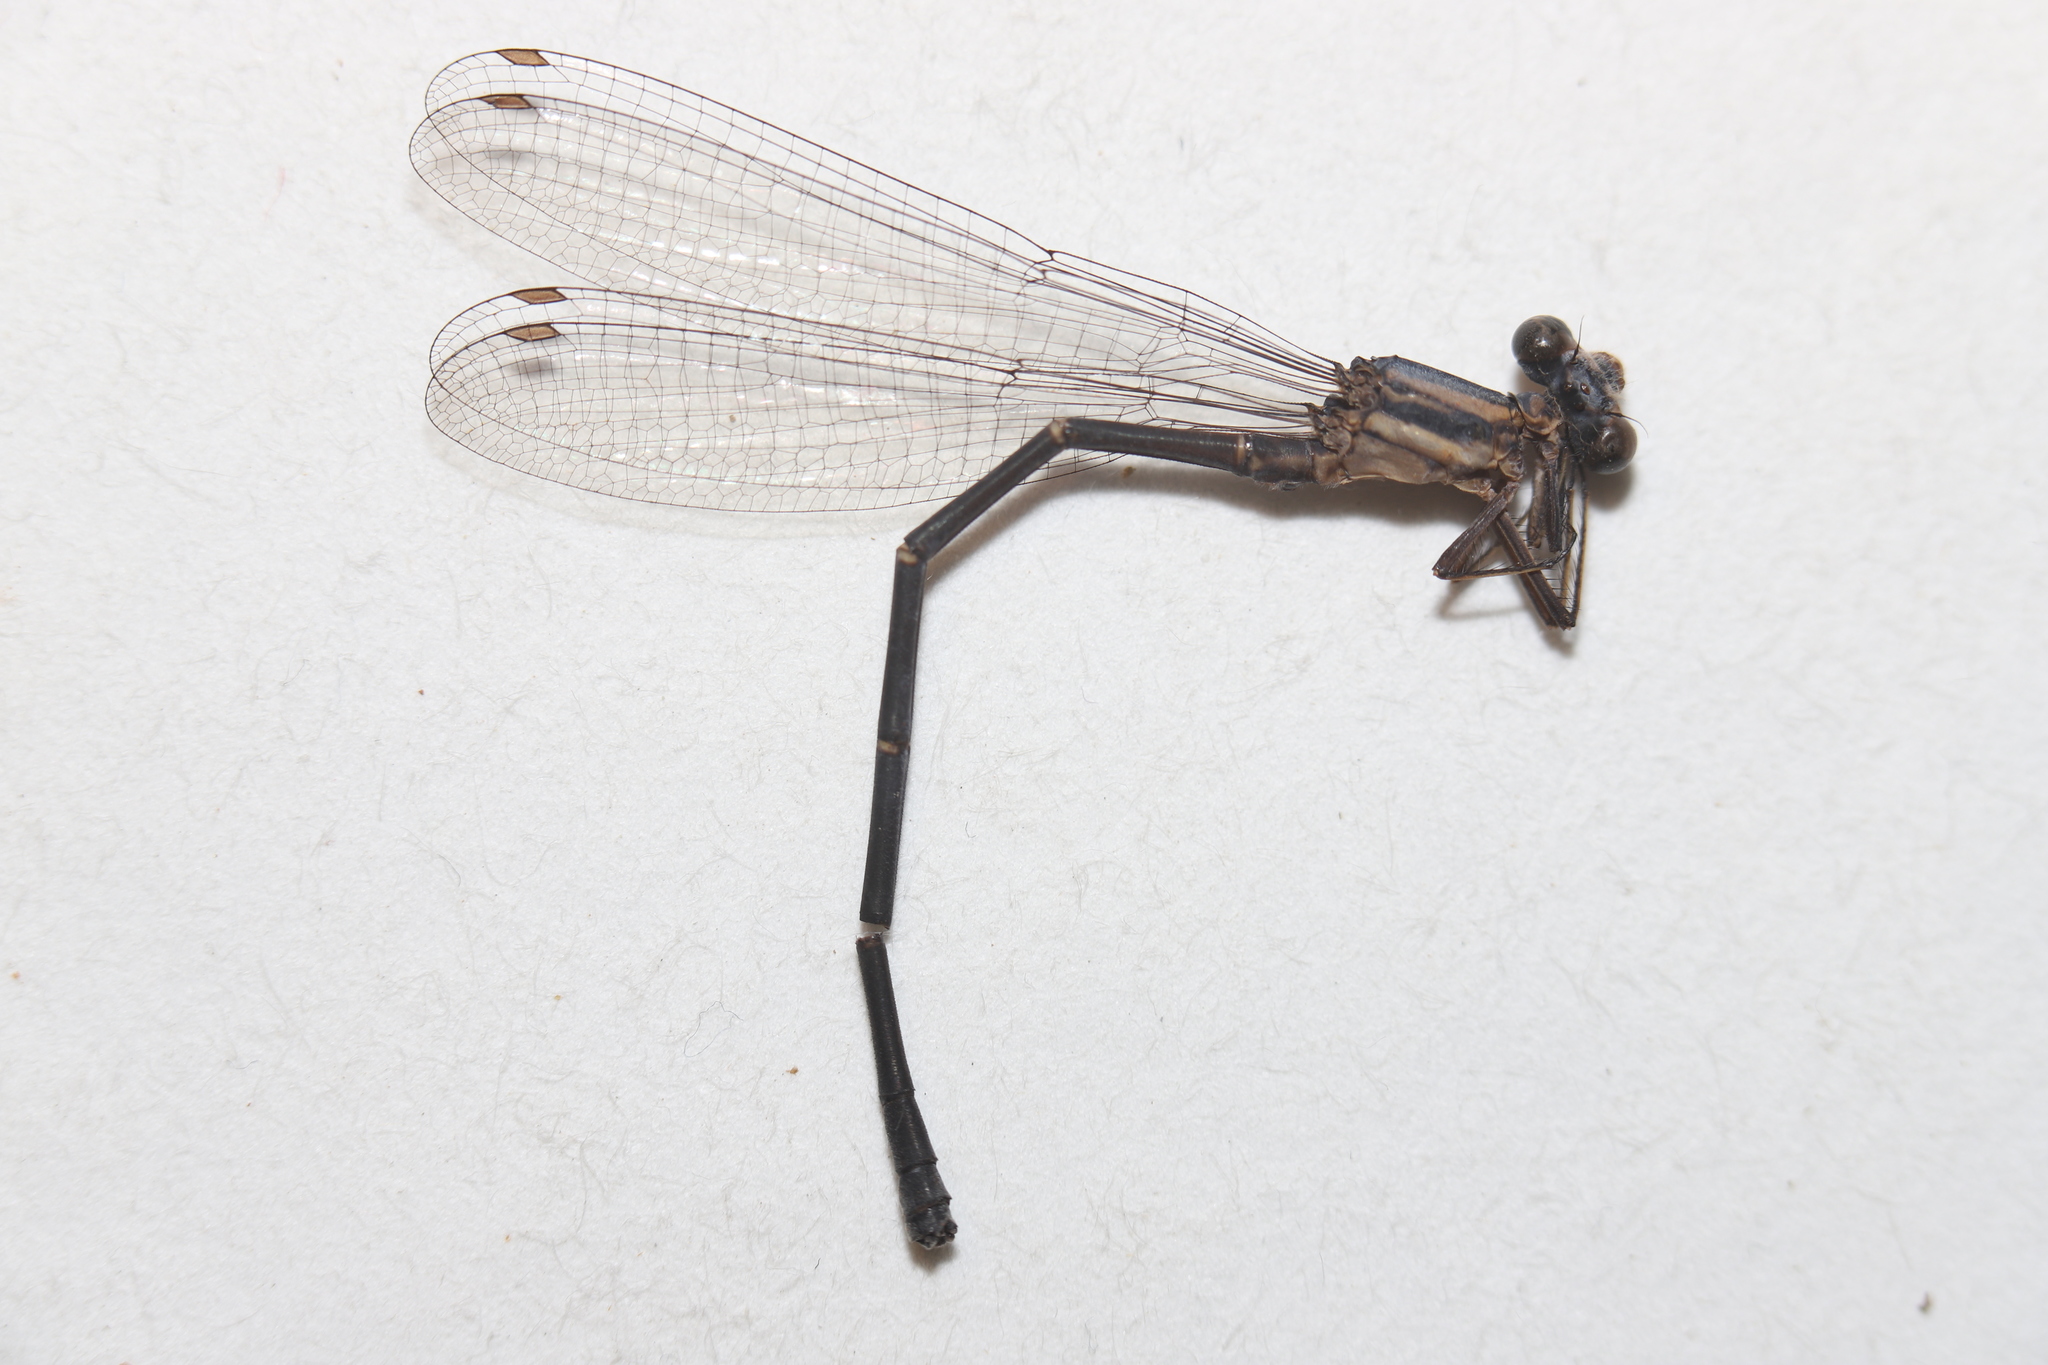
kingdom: Animalia
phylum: Arthropoda
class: Insecta
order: Odonata
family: Coenagrionidae
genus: Argia
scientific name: Argia moesta
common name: Powdered dancer
